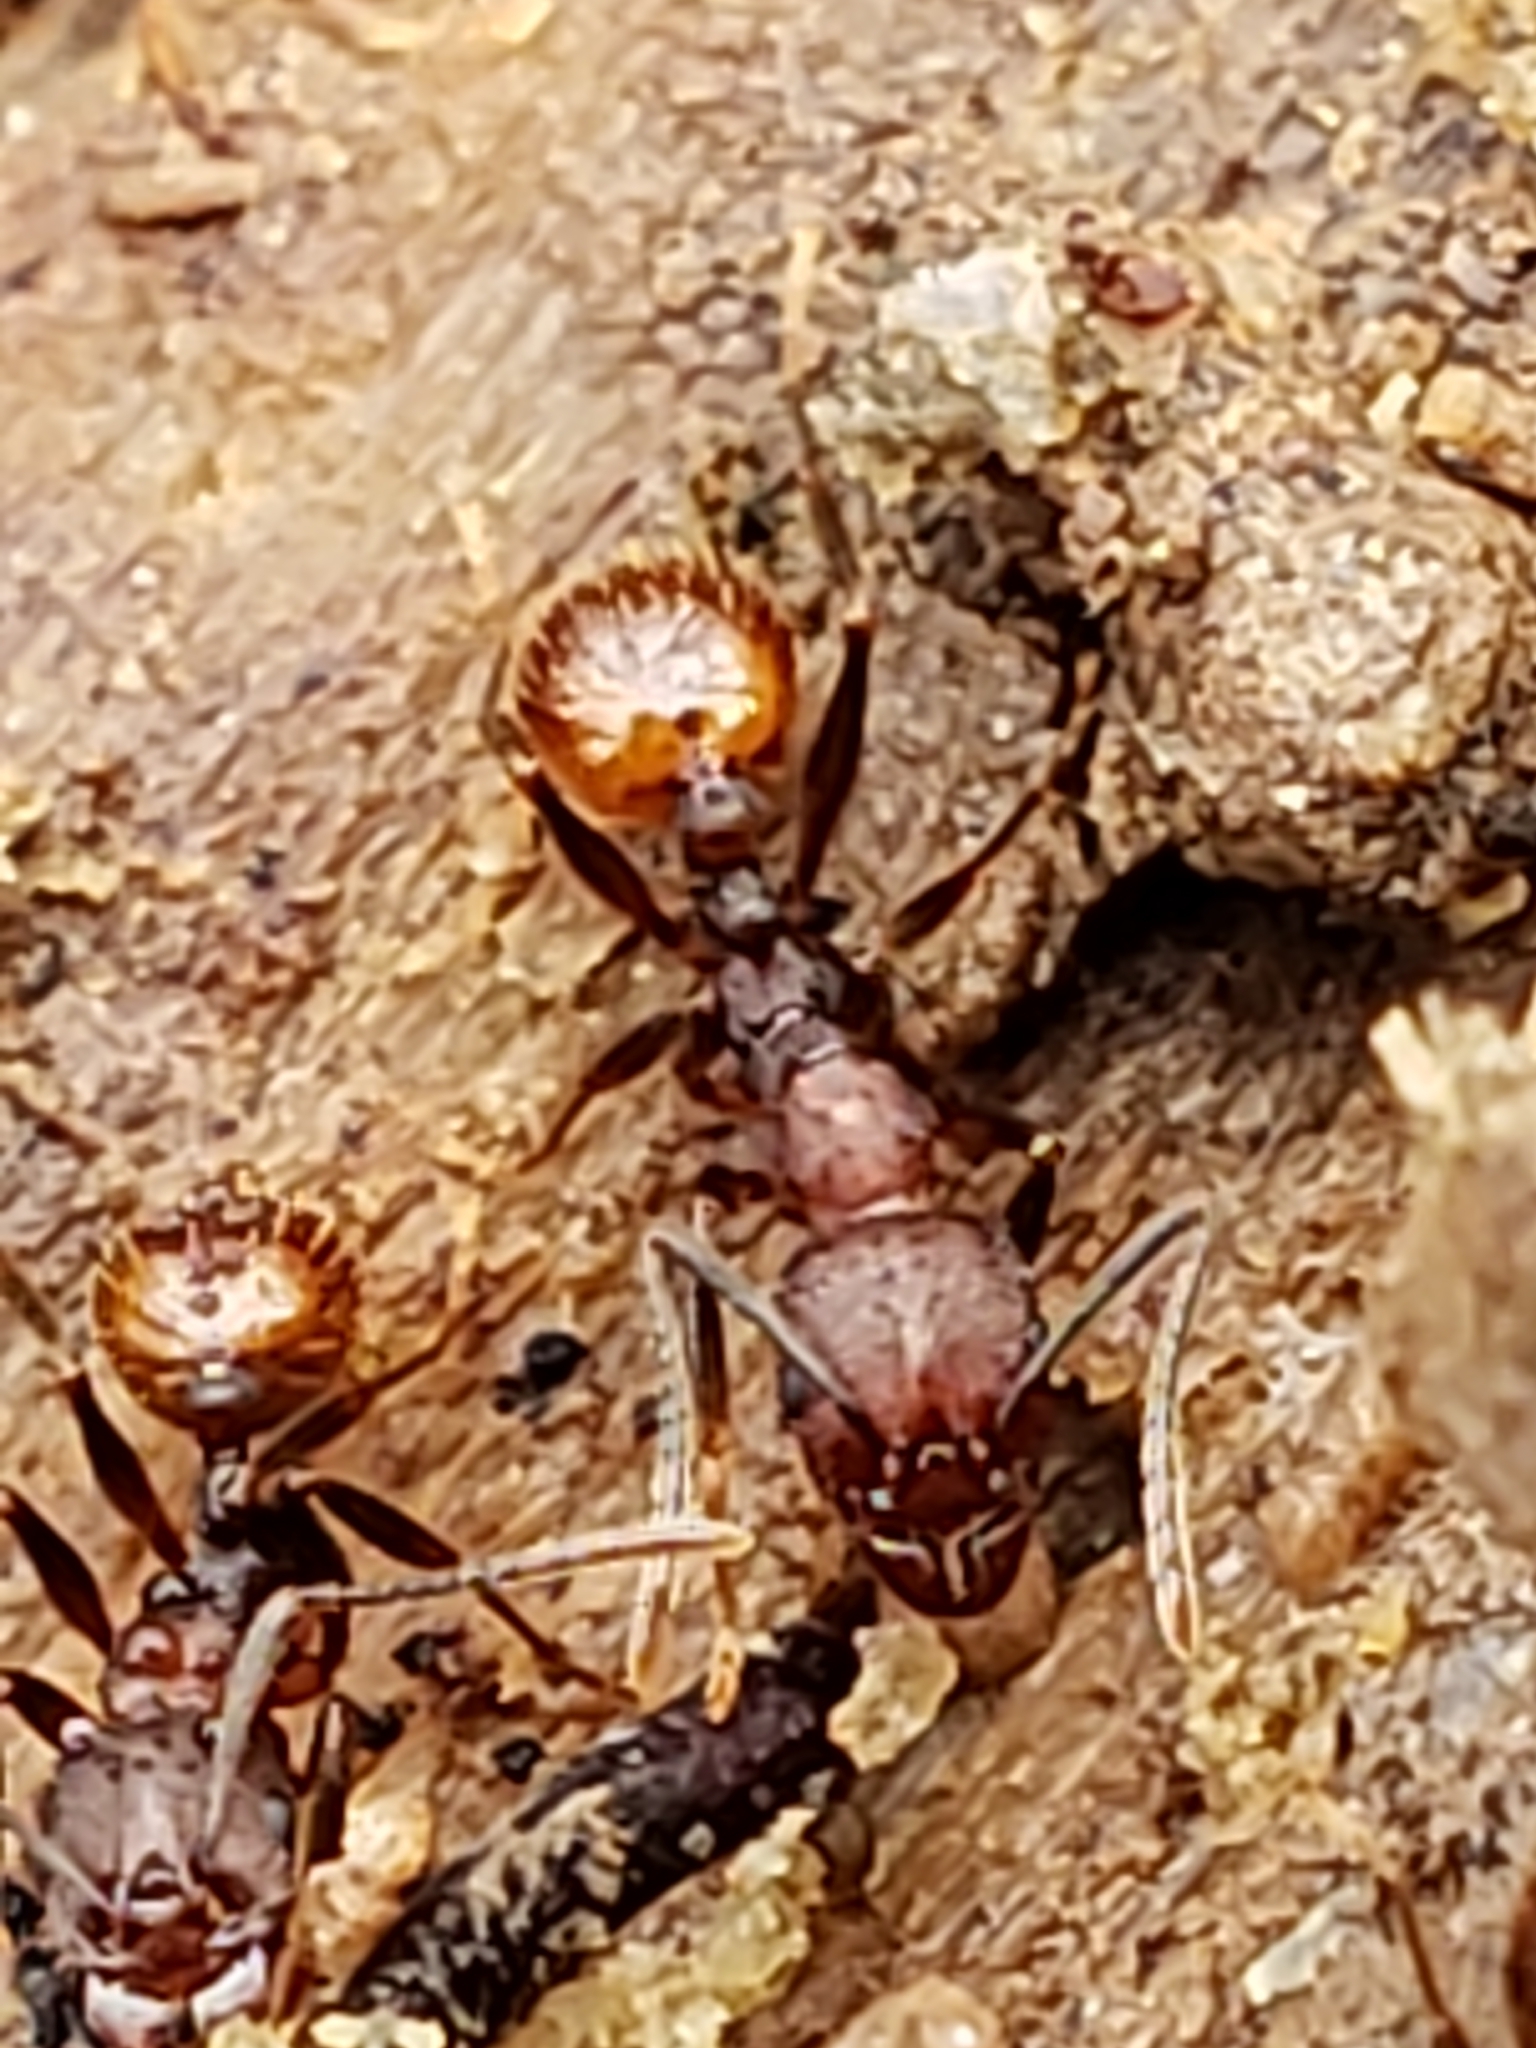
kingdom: Animalia
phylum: Arthropoda
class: Insecta
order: Hymenoptera
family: Formicidae
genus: Aphaenogaster
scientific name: Aphaenogaster fulva
